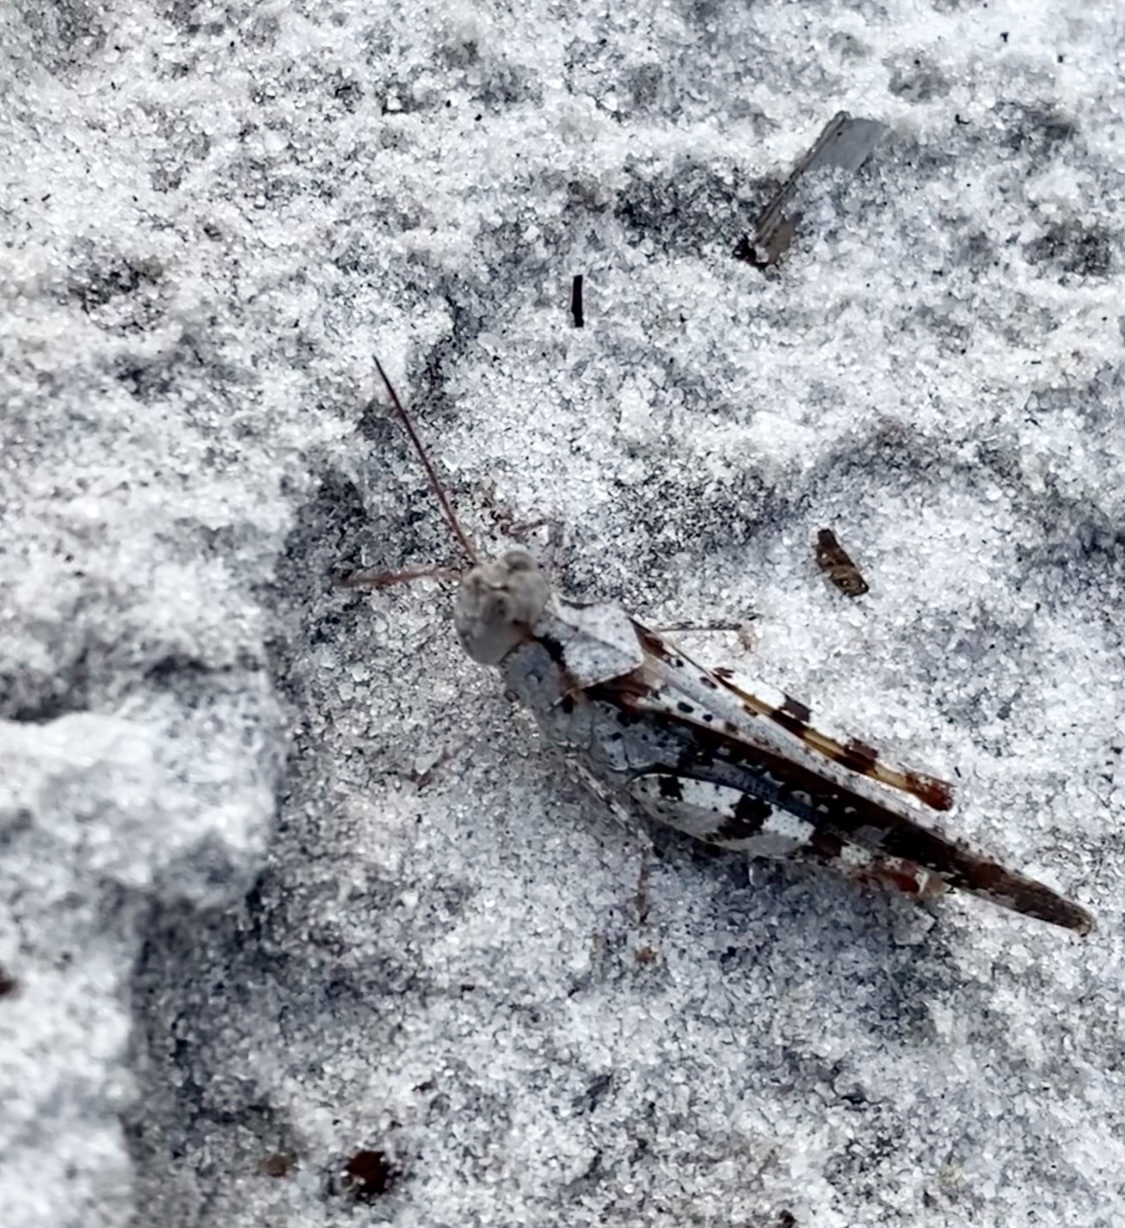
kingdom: Animalia
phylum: Arthropoda
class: Insecta
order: Orthoptera
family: Acrididae
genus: Spharagemon
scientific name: Spharagemon marmoratum
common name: Marbled grasshopper
